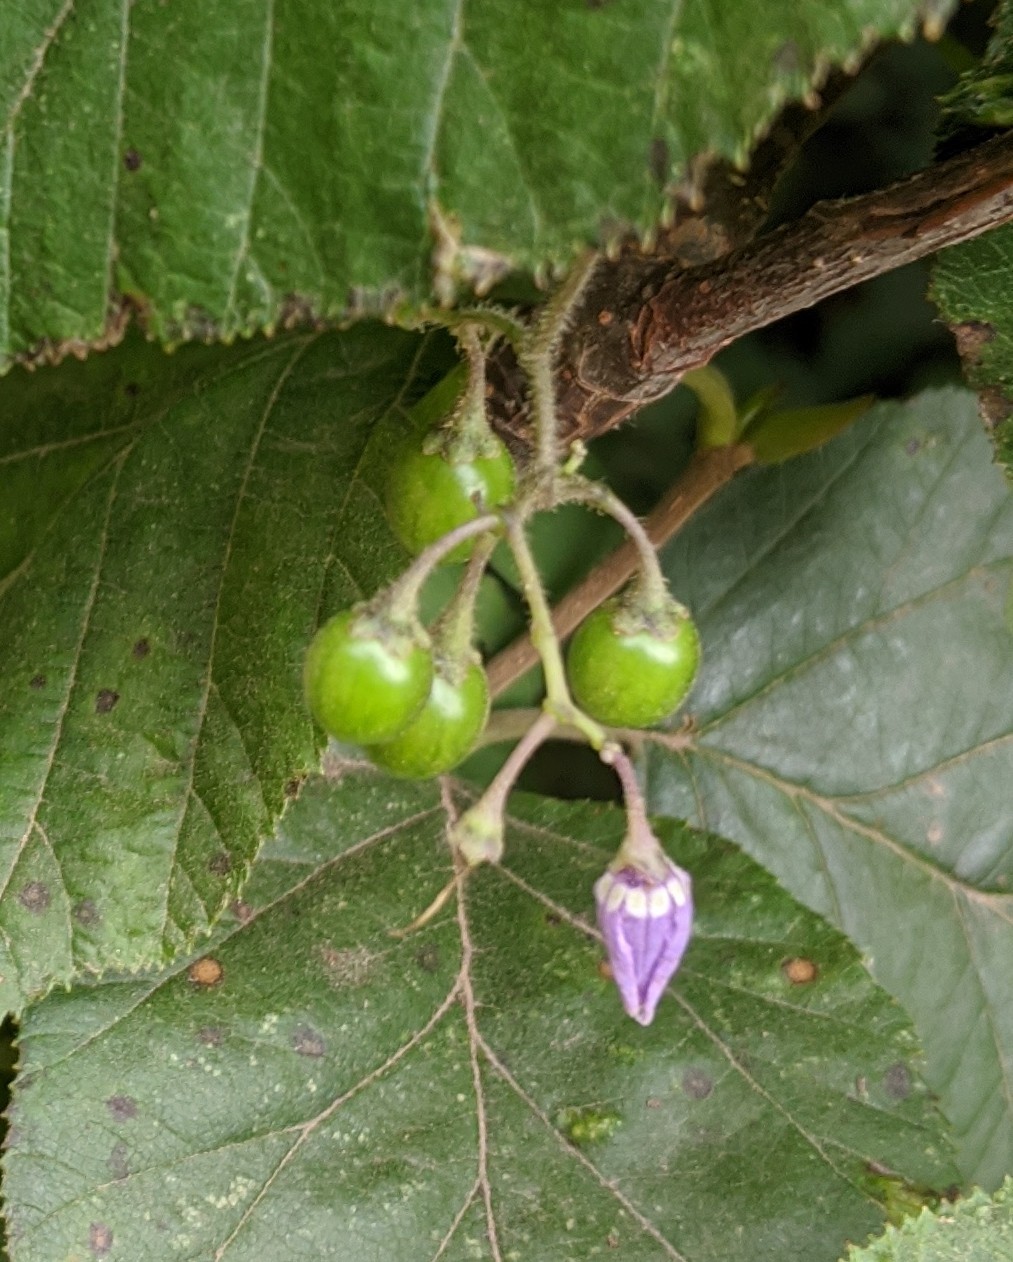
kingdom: Plantae
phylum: Tracheophyta
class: Magnoliopsida
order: Solanales
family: Solanaceae
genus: Solanum
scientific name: Solanum dulcamara
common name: Climbing nightshade
